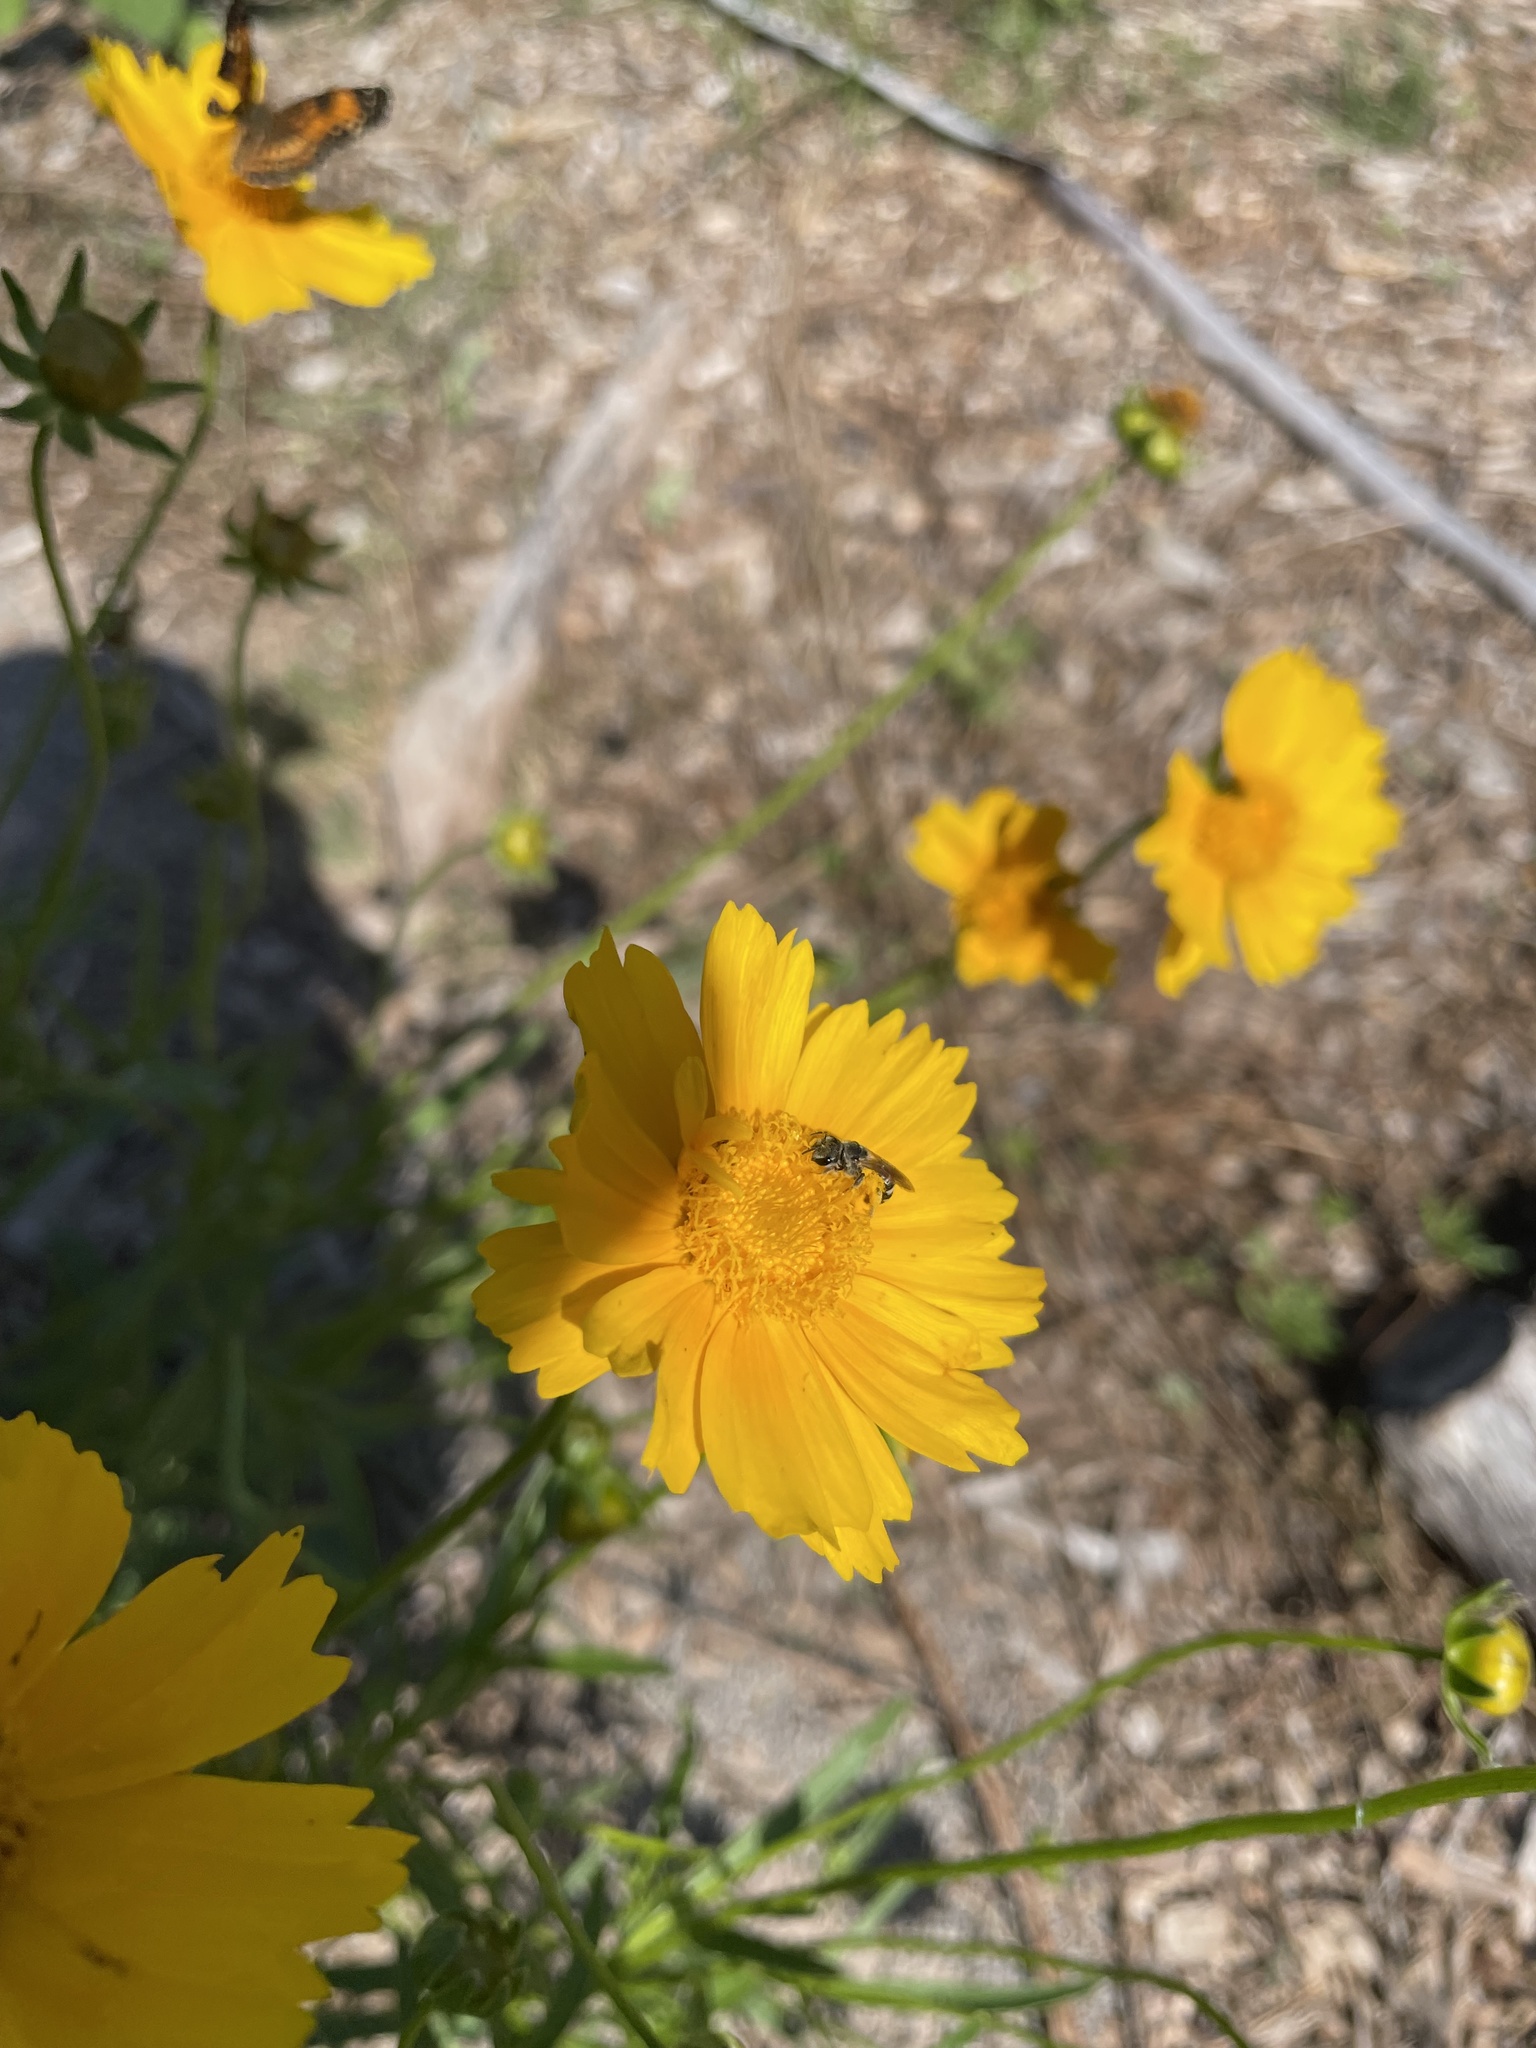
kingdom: Animalia
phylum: Arthropoda
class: Insecta
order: Hymenoptera
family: Halictidae
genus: Halictus
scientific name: Halictus ligatus
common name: Ligated furrow bee
